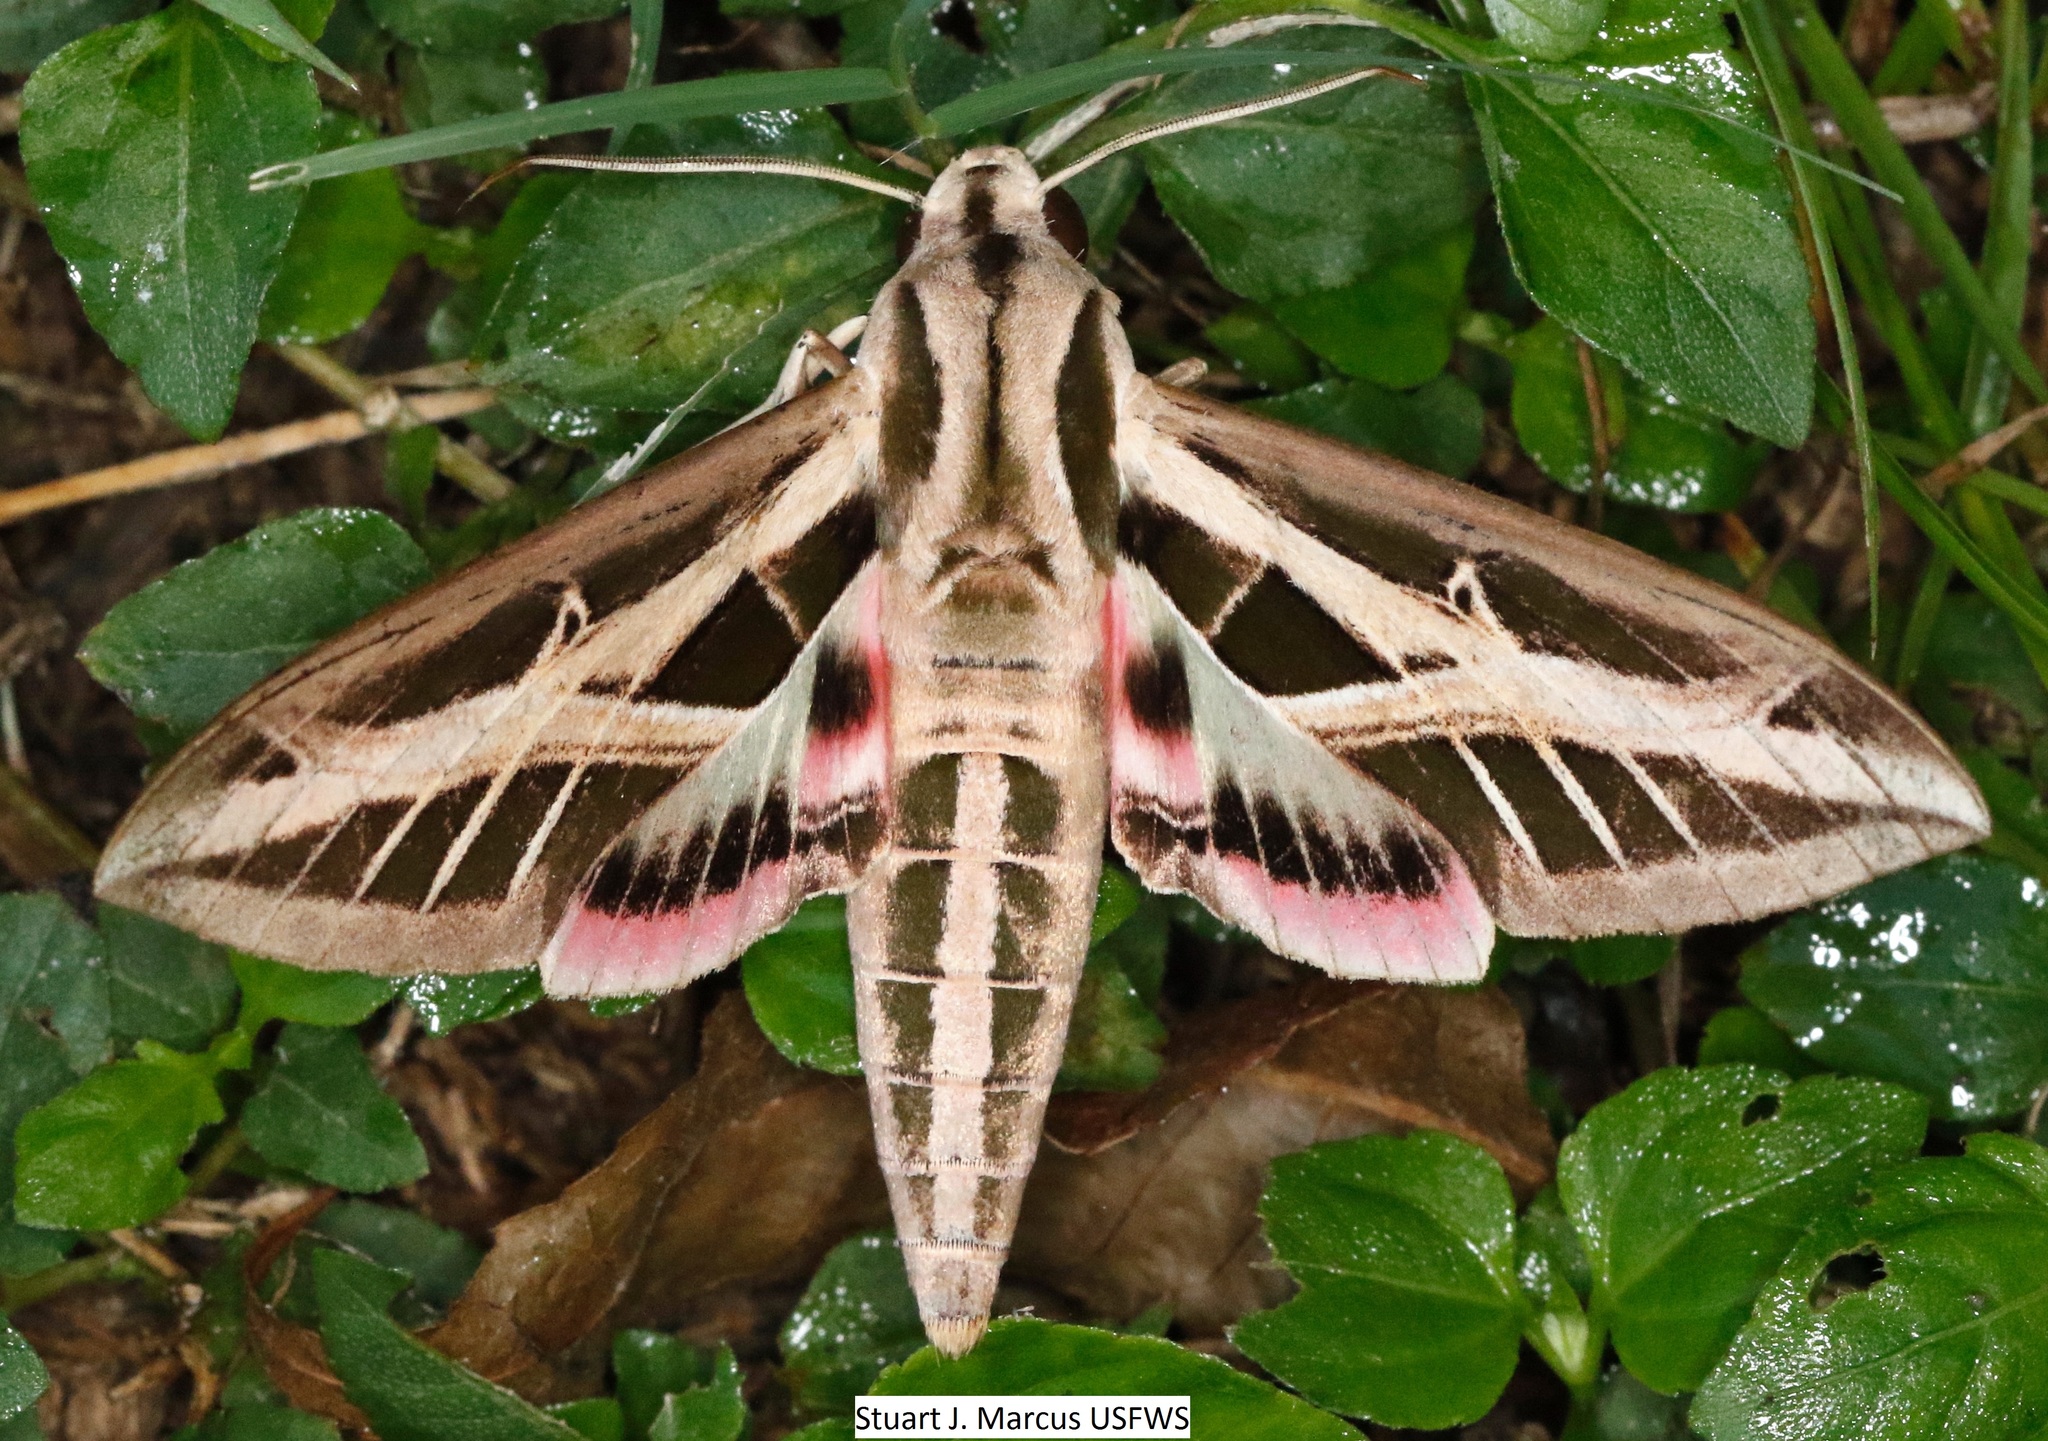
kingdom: Animalia
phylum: Arthropoda
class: Insecta
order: Lepidoptera
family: Sphingidae
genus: Eumorpha
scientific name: Eumorpha fasciatus
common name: Banded sphinx
